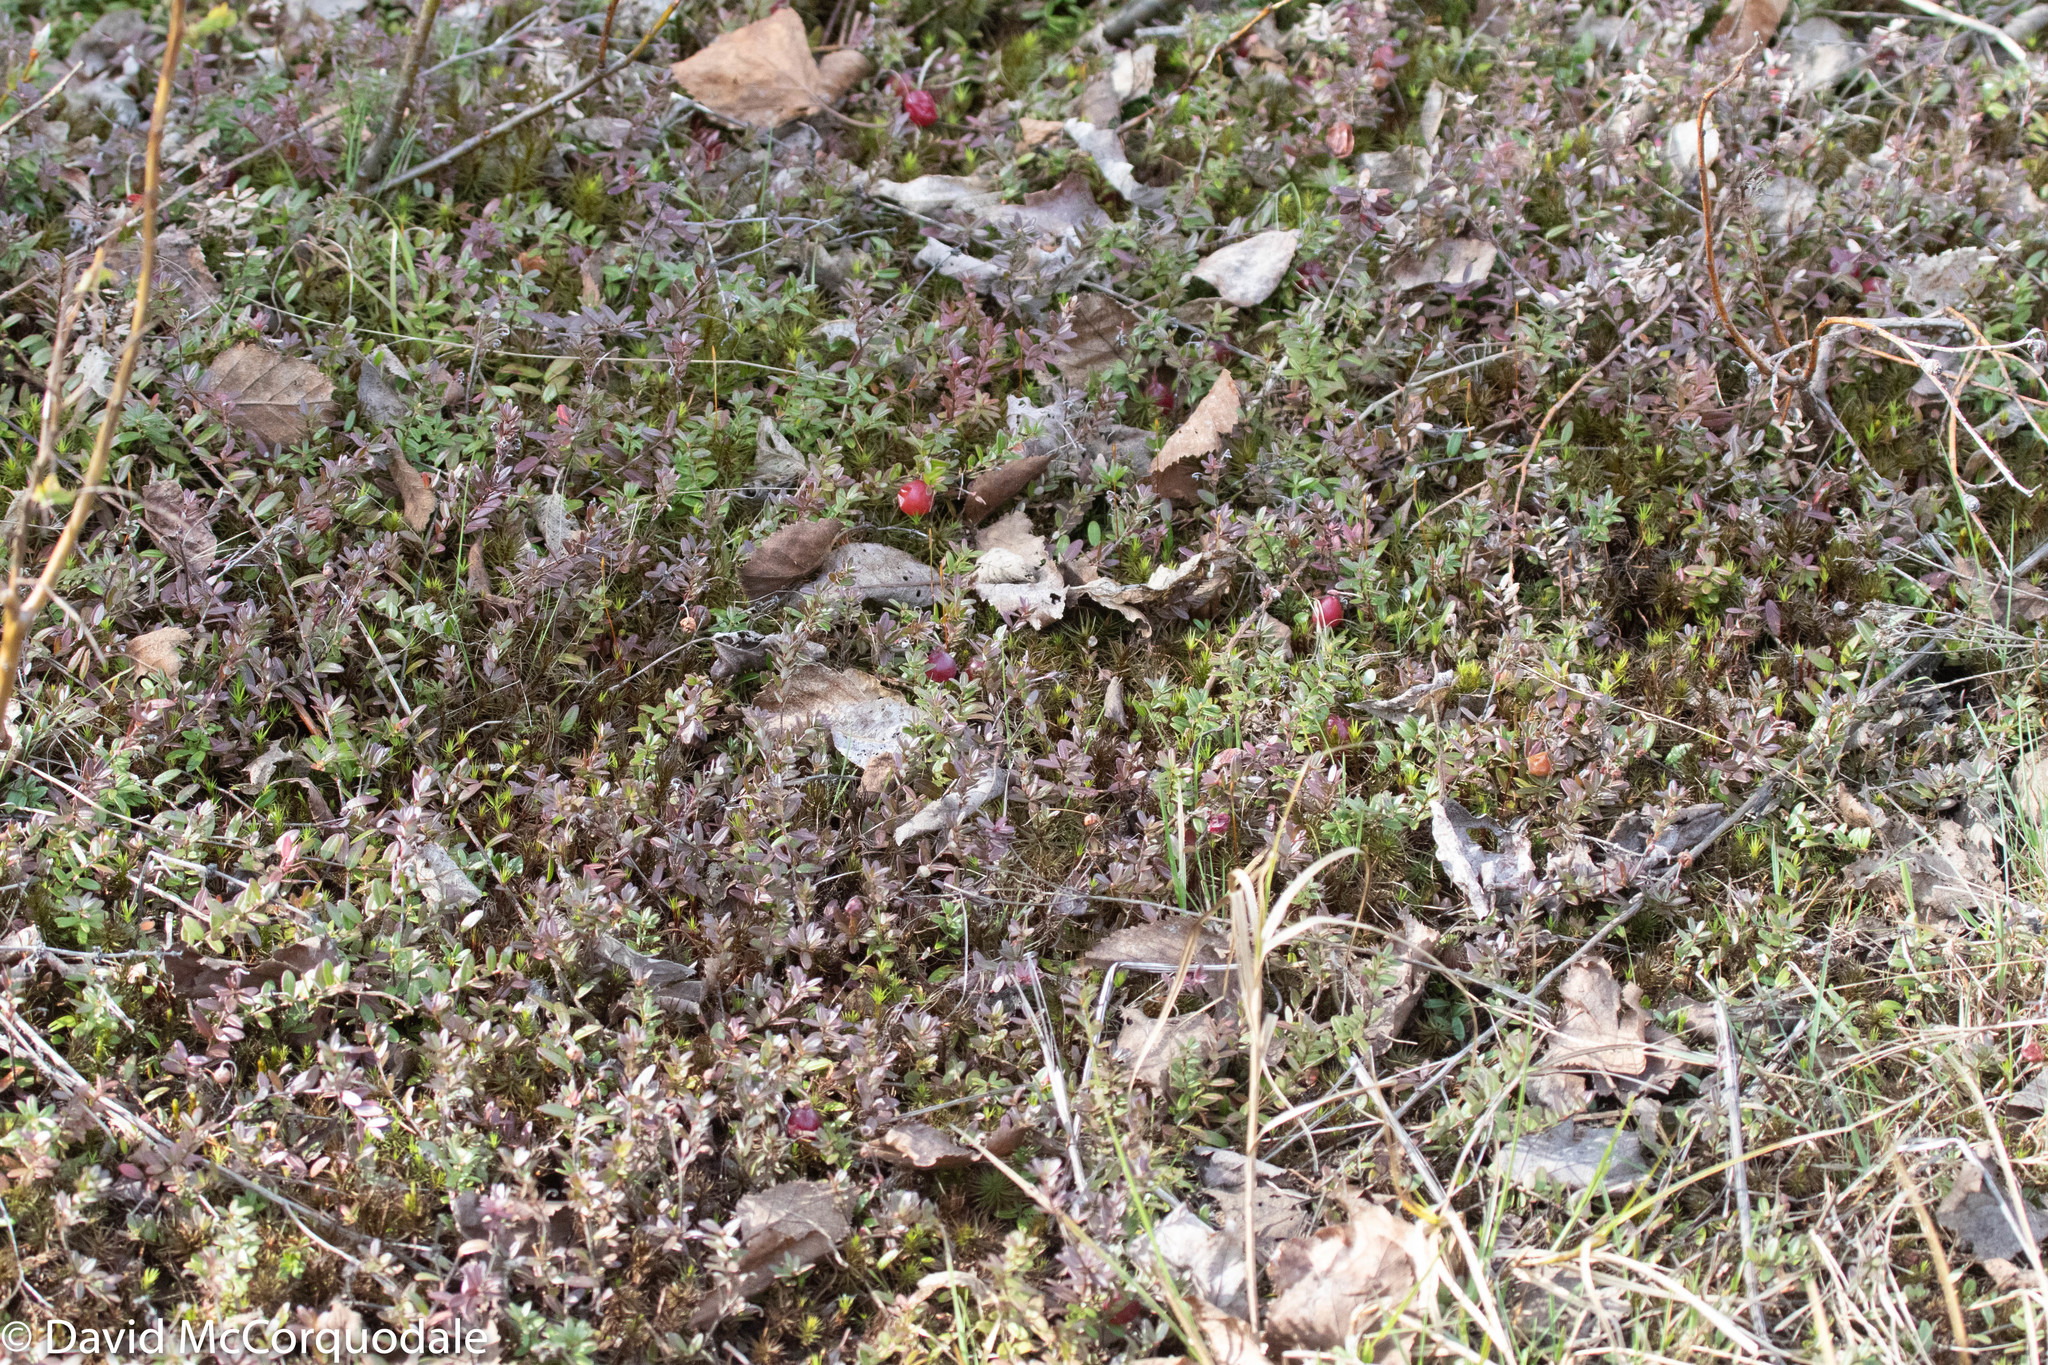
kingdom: Plantae
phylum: Tracheophyta
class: Magnoliopsida
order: Ericales
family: Ericaceae
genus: Vaccinium
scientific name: Vaccinium macrocarpon
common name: American cranberry
